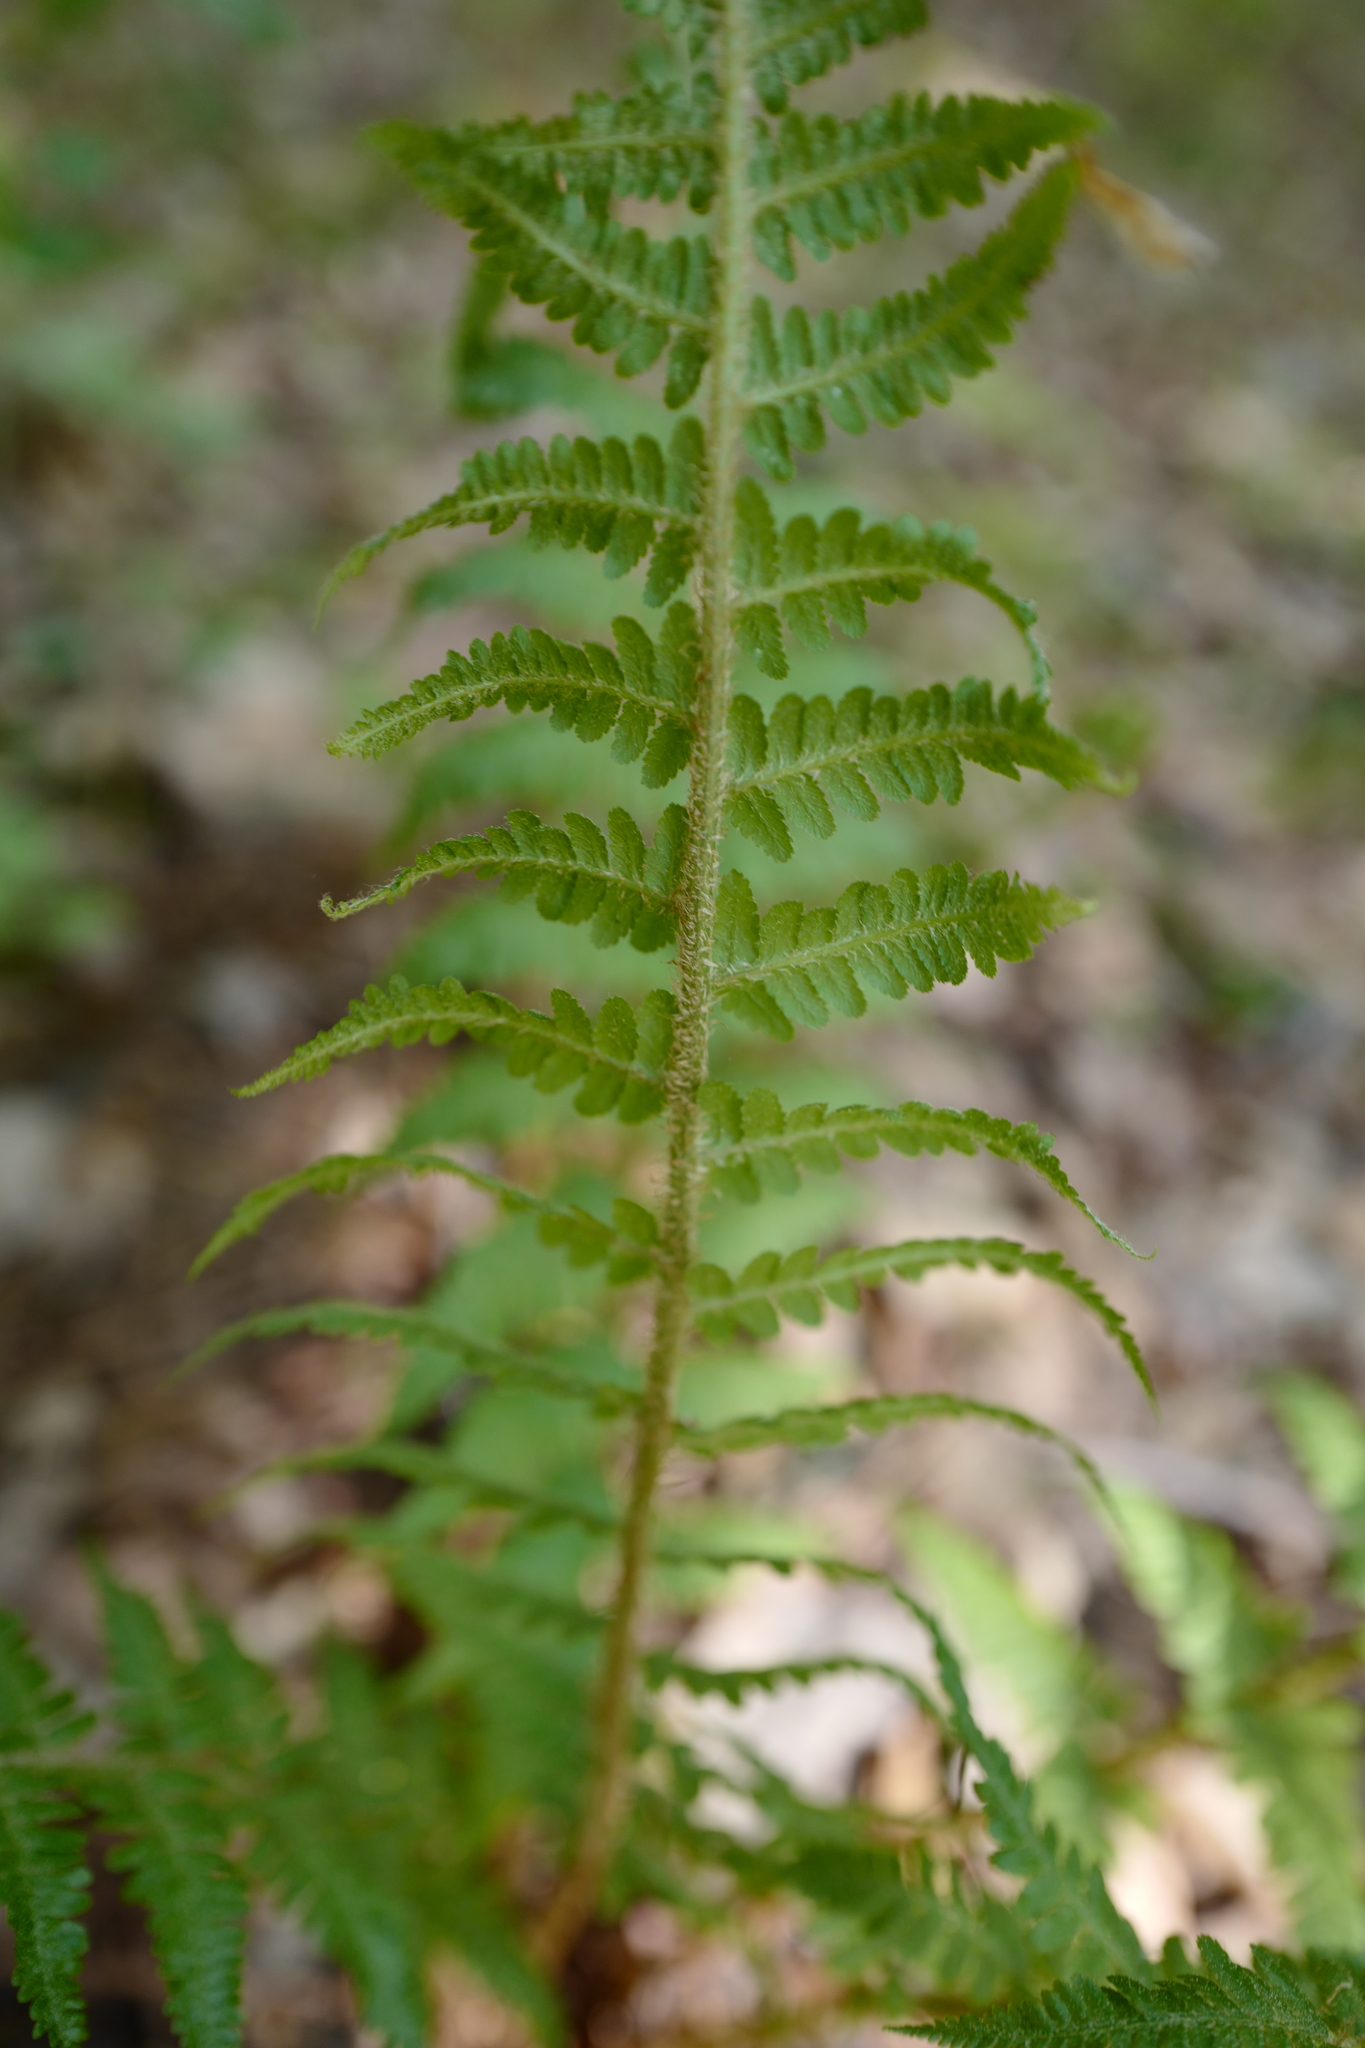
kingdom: Plantae
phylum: Tracheophyta
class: Polypodiopsida
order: Polypodiales
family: Dryopteridaceae
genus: Dryopteris
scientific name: Dryopteris filix-mas
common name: Male fern
